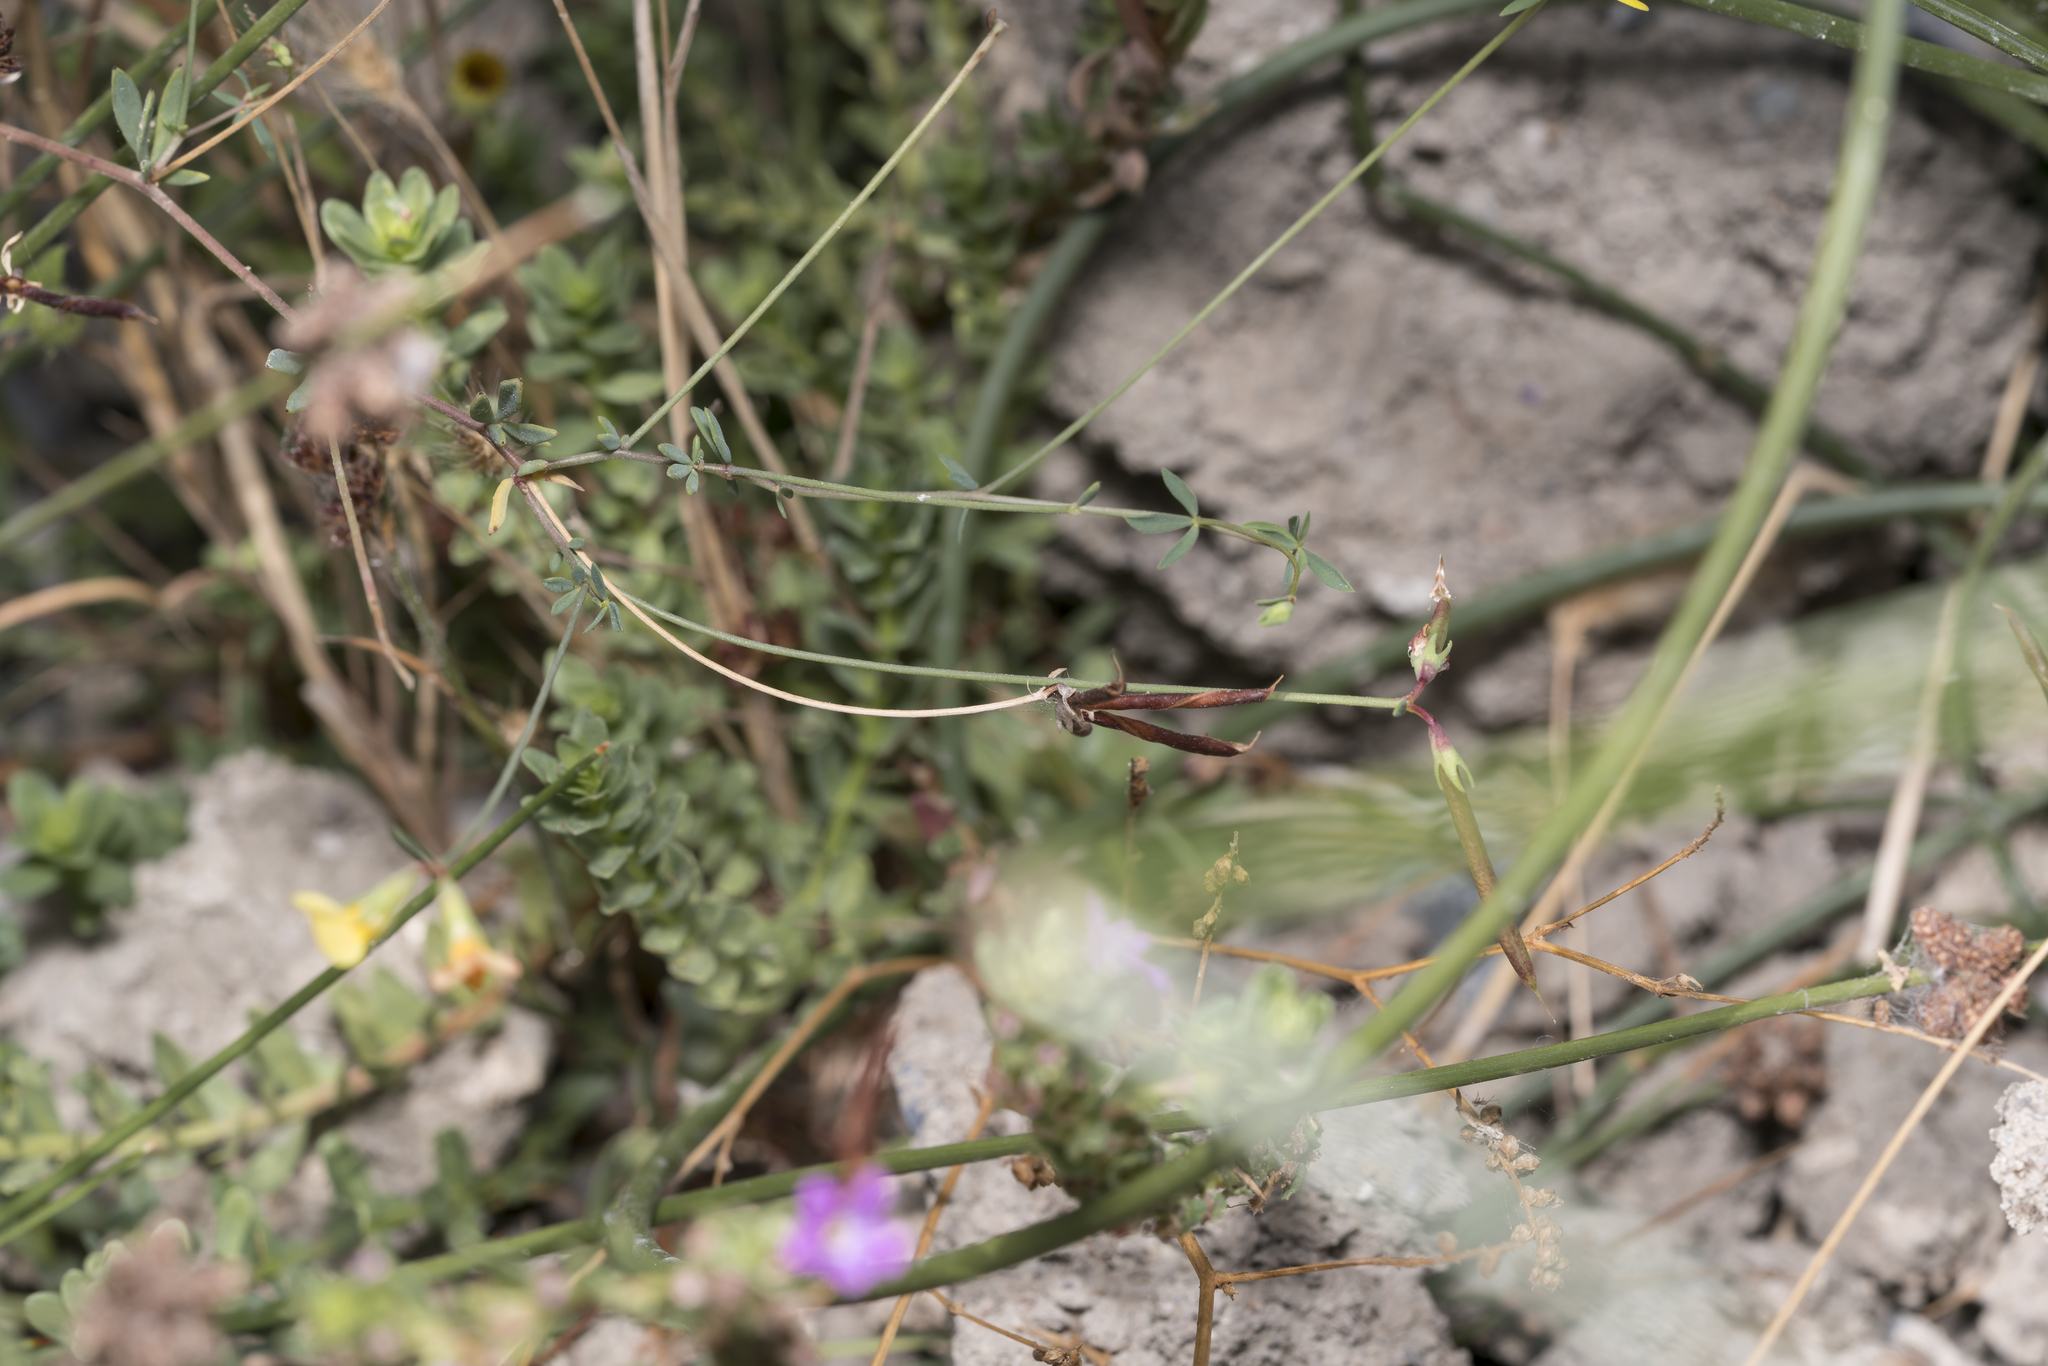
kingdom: Plantae
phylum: Tracheophyta
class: Magnoliopsida
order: Fabales
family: Fabaceae
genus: Lotus
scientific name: Lotus tenuis
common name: Narrow-leaved bird's-foot-trefoil
